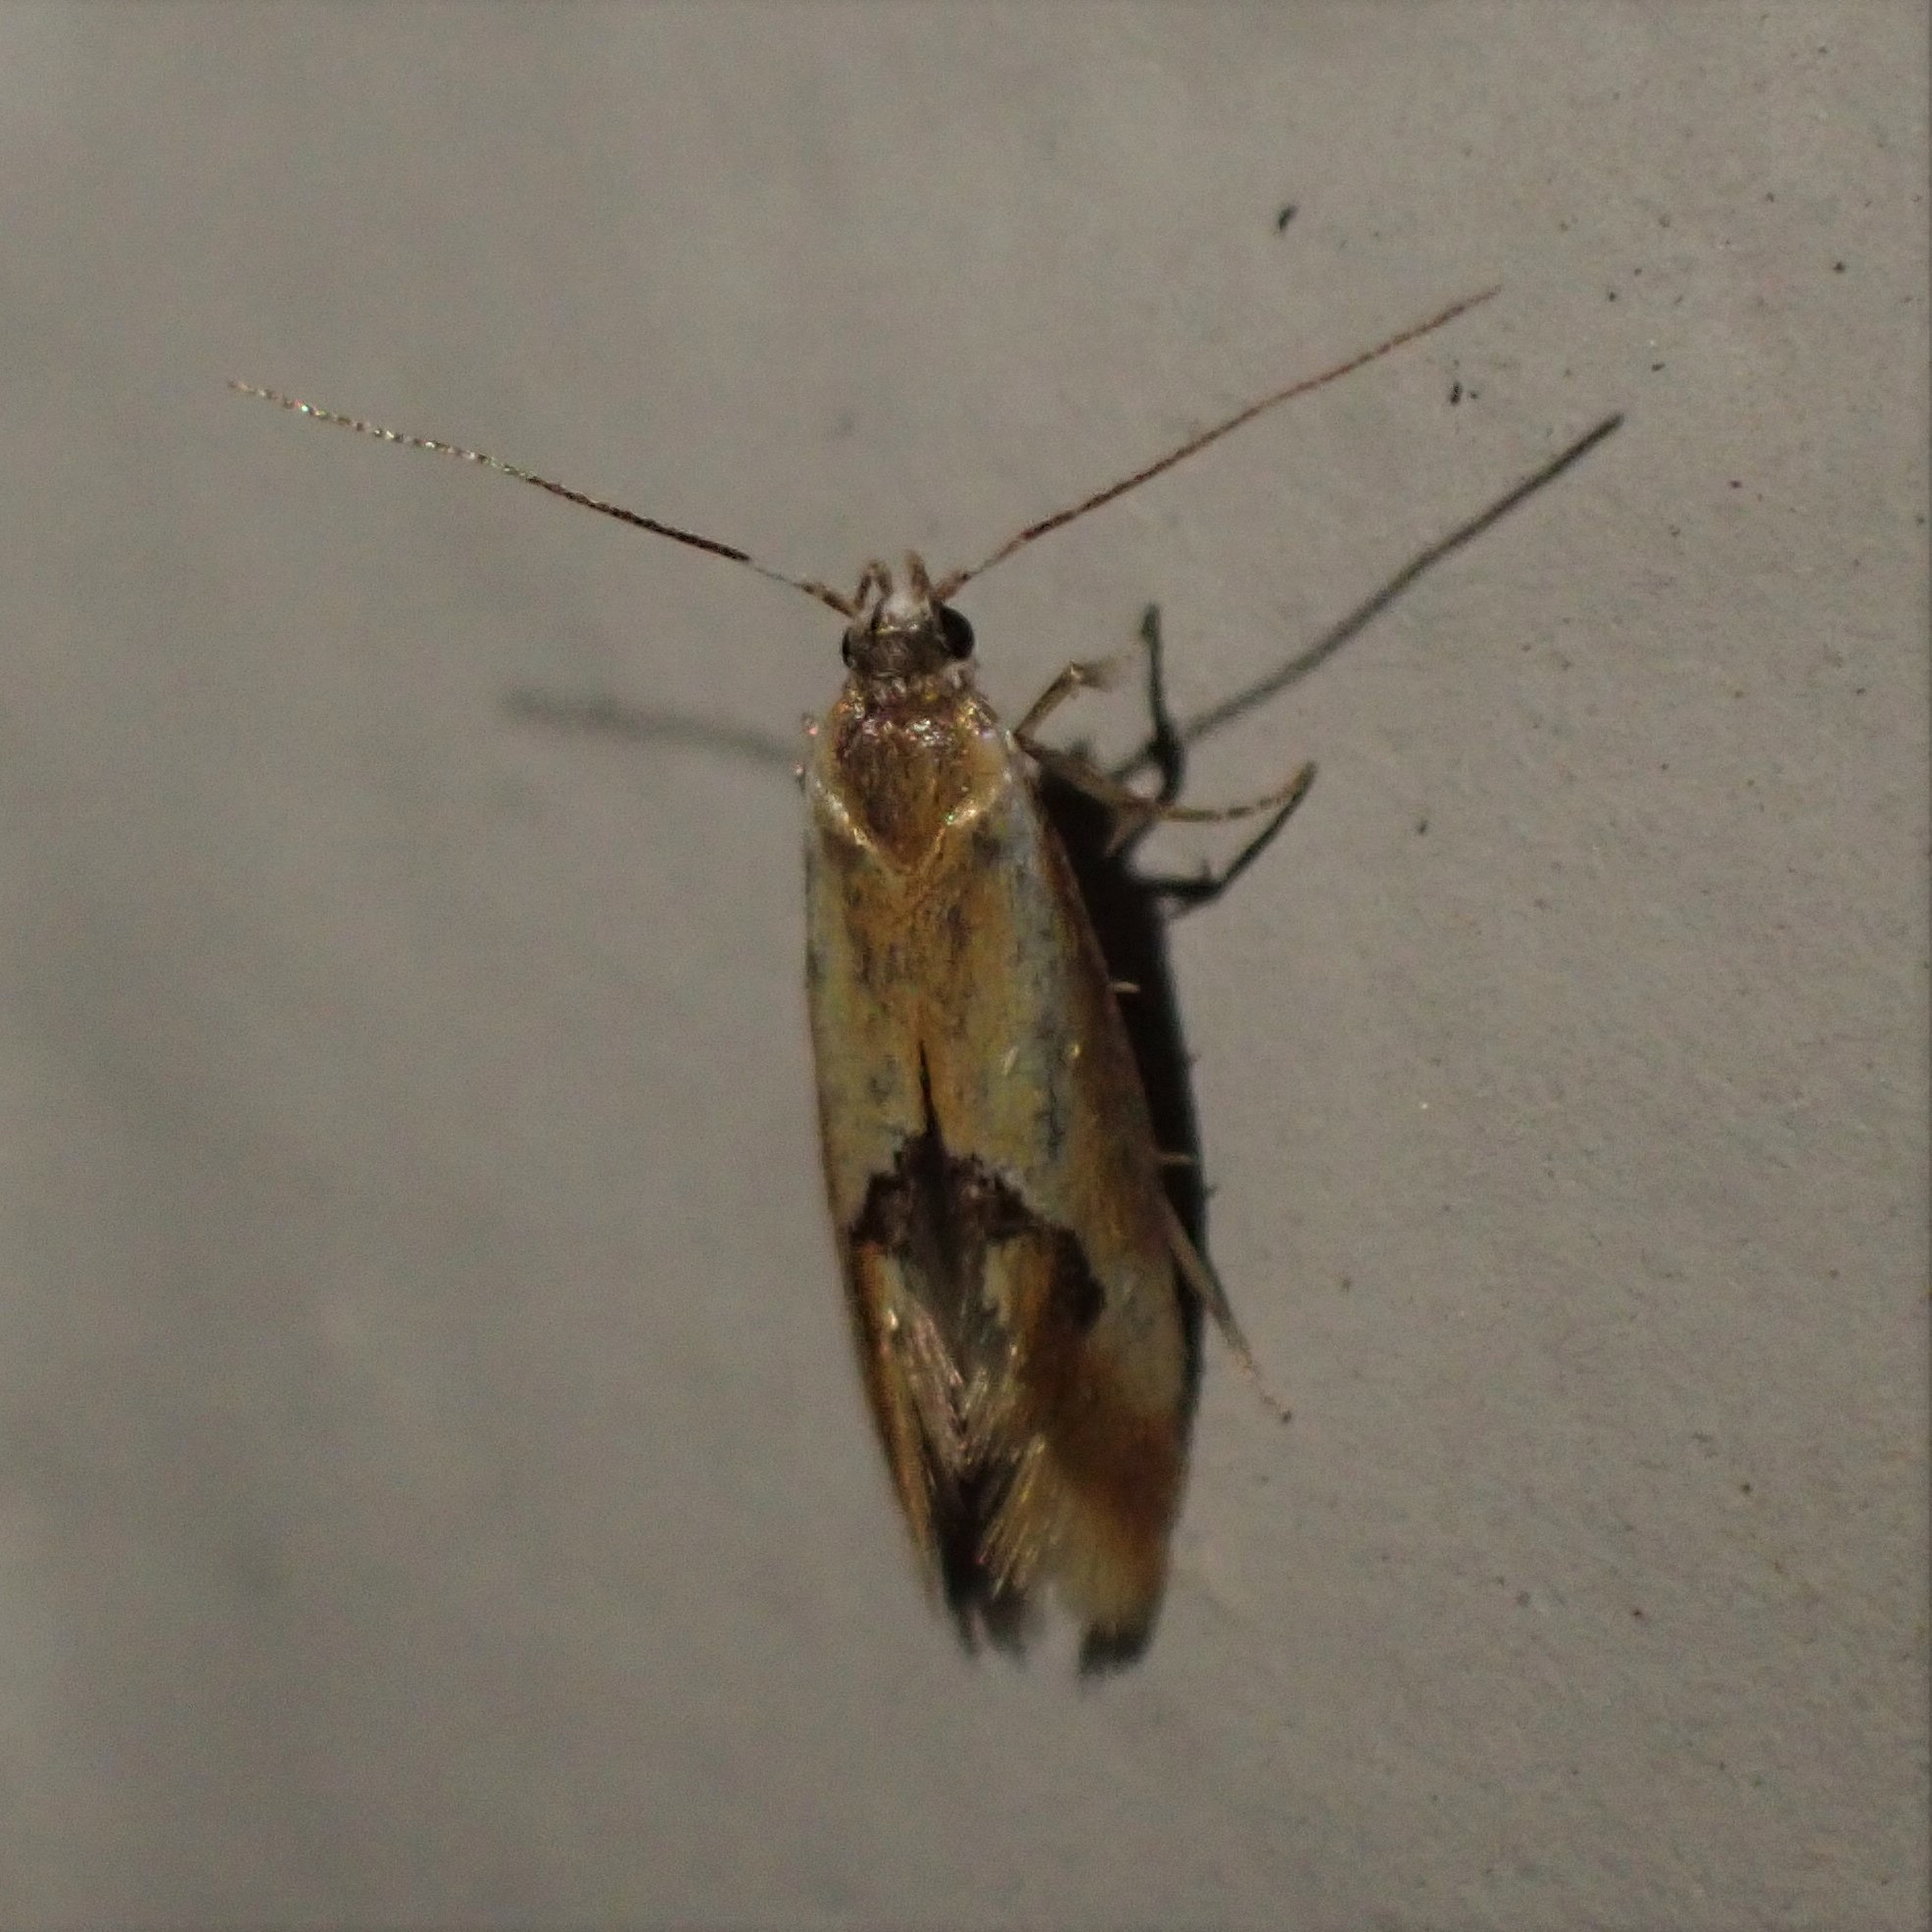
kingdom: Animalia
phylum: Arthropoda
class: Insecta
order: Lepidoptera
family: Oecophoridae
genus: Batia
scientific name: Batia lunaris
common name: Moth
